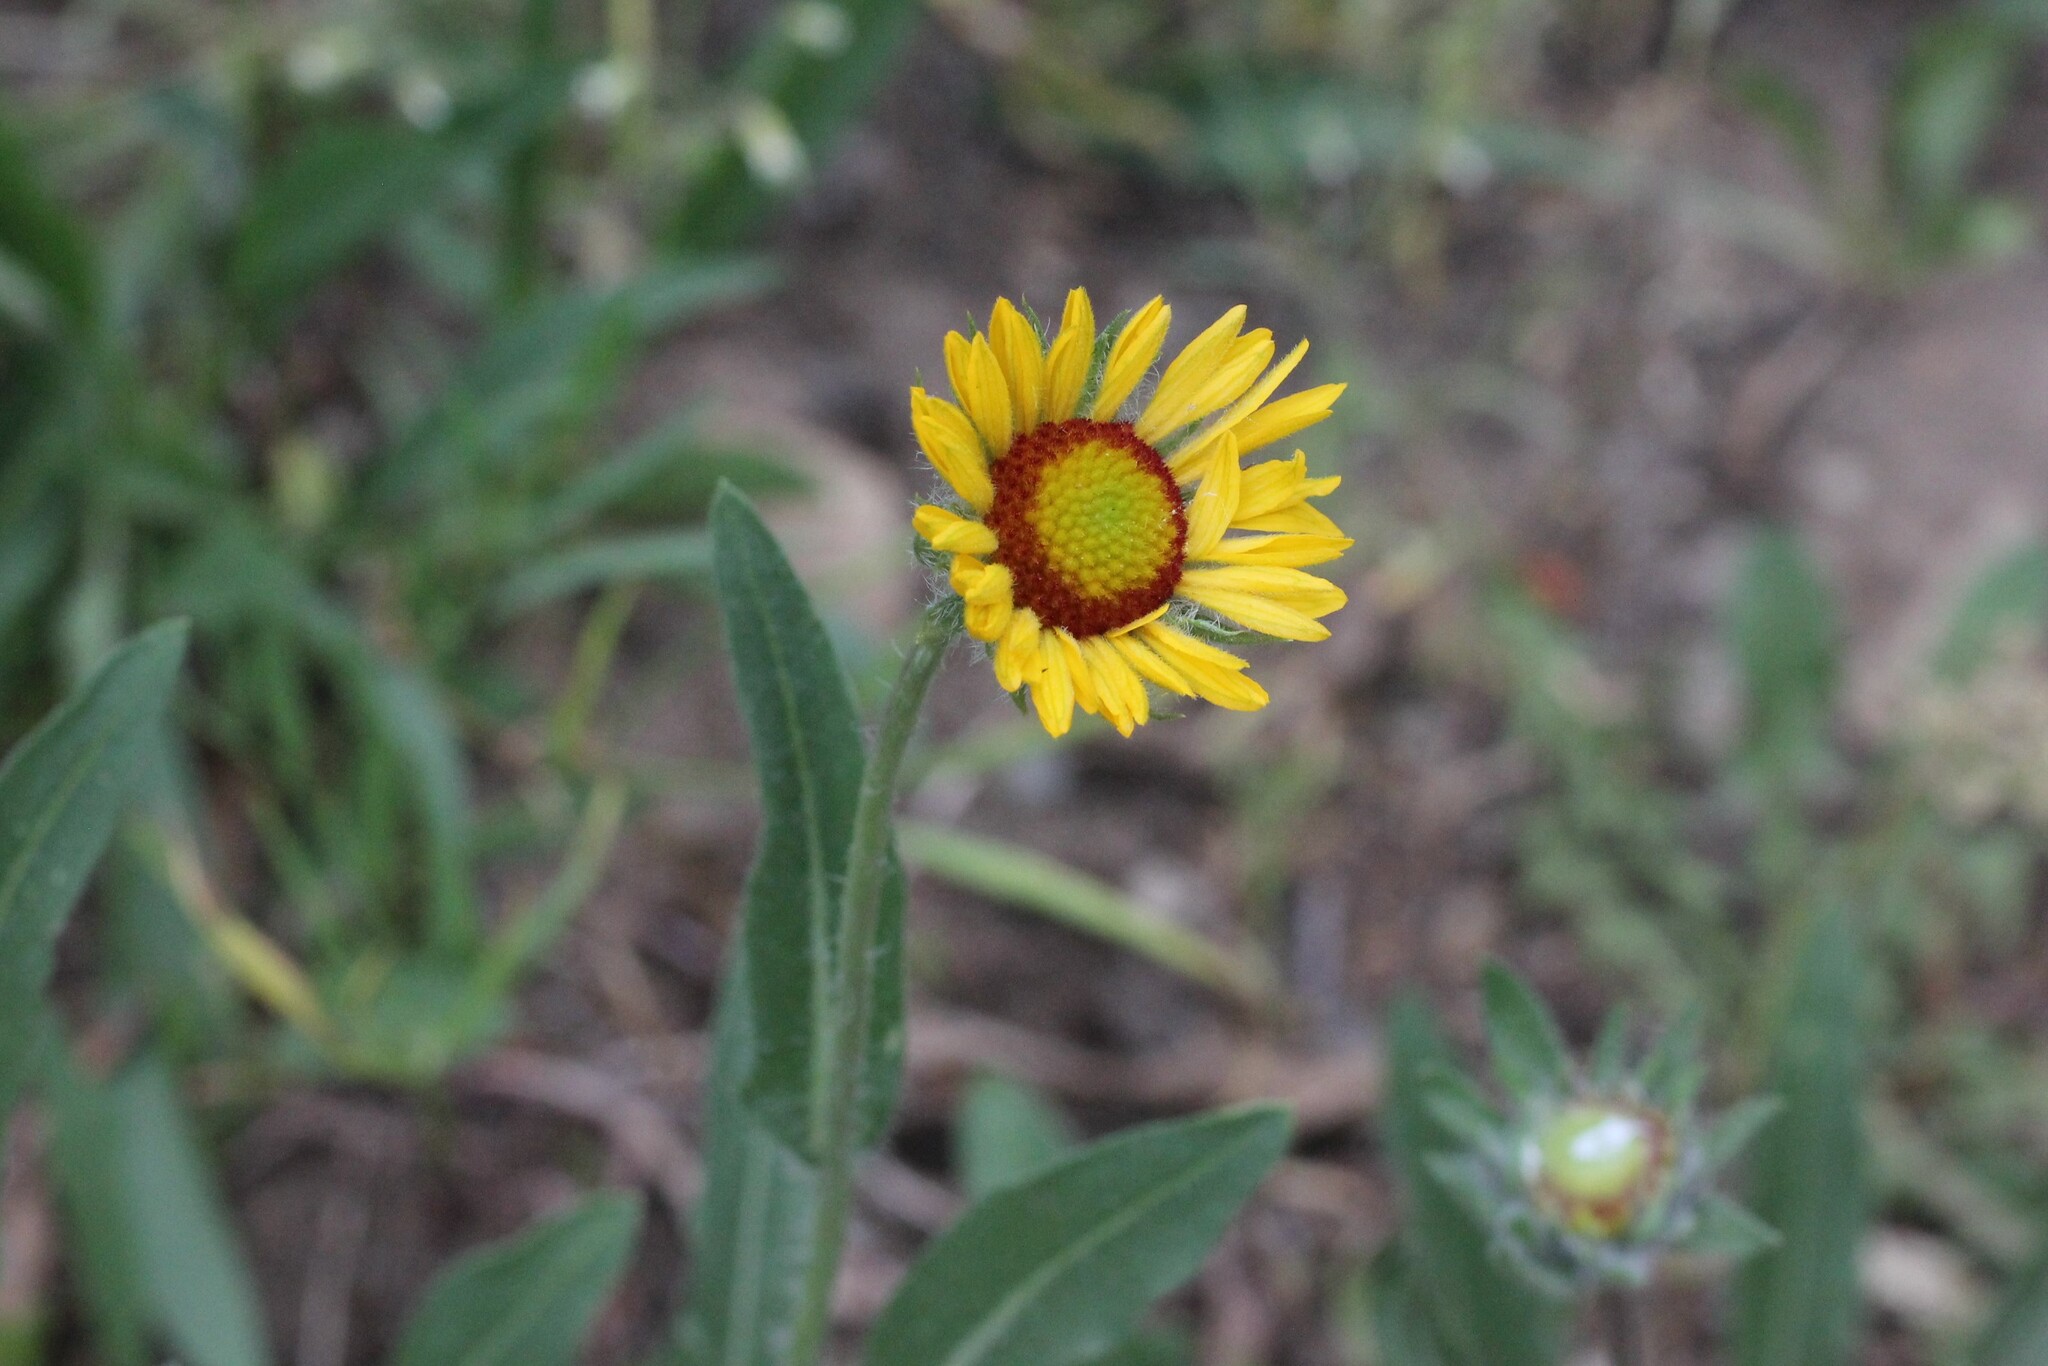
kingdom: Plantae
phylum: Tracheophyta
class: Magnoliopsida
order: Asterales
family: Asteraceae
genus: Gaillardia
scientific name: Gaillardia aristata
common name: Blanket-flower
